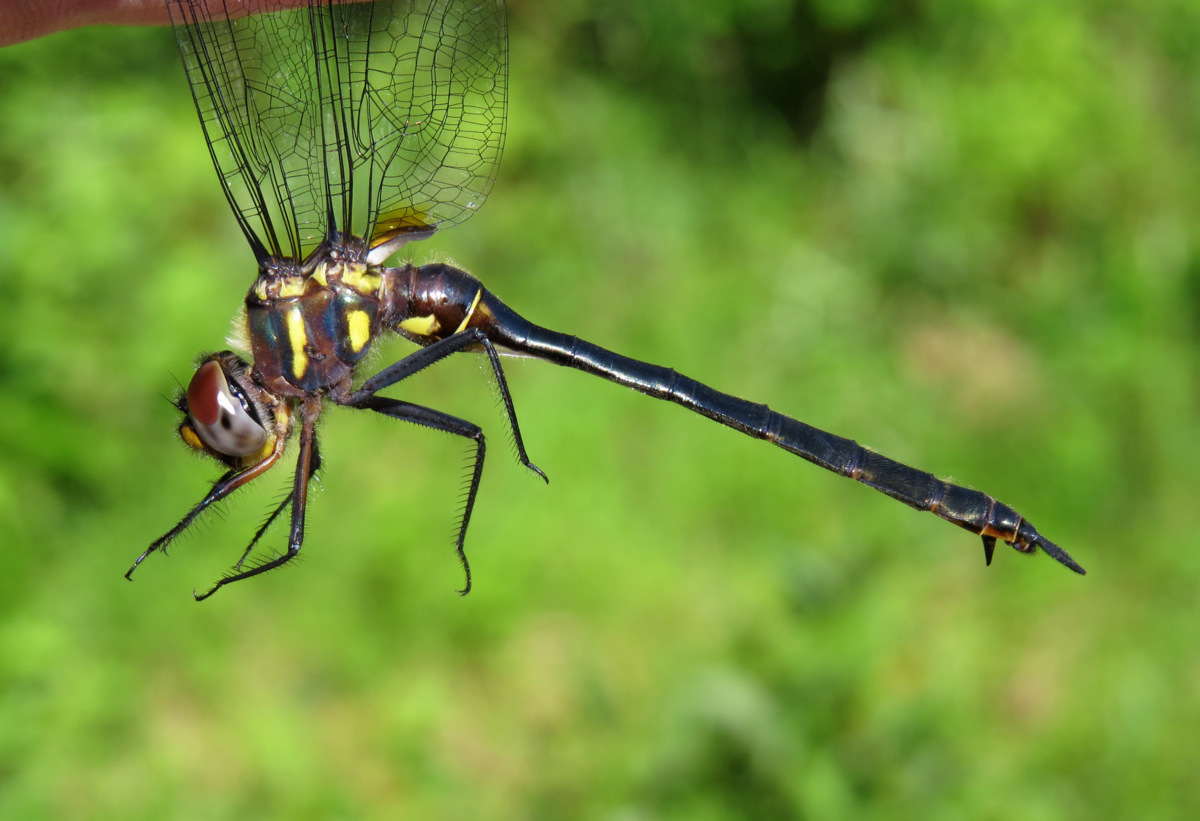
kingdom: Animalia
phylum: Arthropoda
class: Insecta
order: Odonata
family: Corduliidae
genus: Somatochlora
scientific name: Somatochlora tenebrosa
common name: Clamp-tipped emerald
